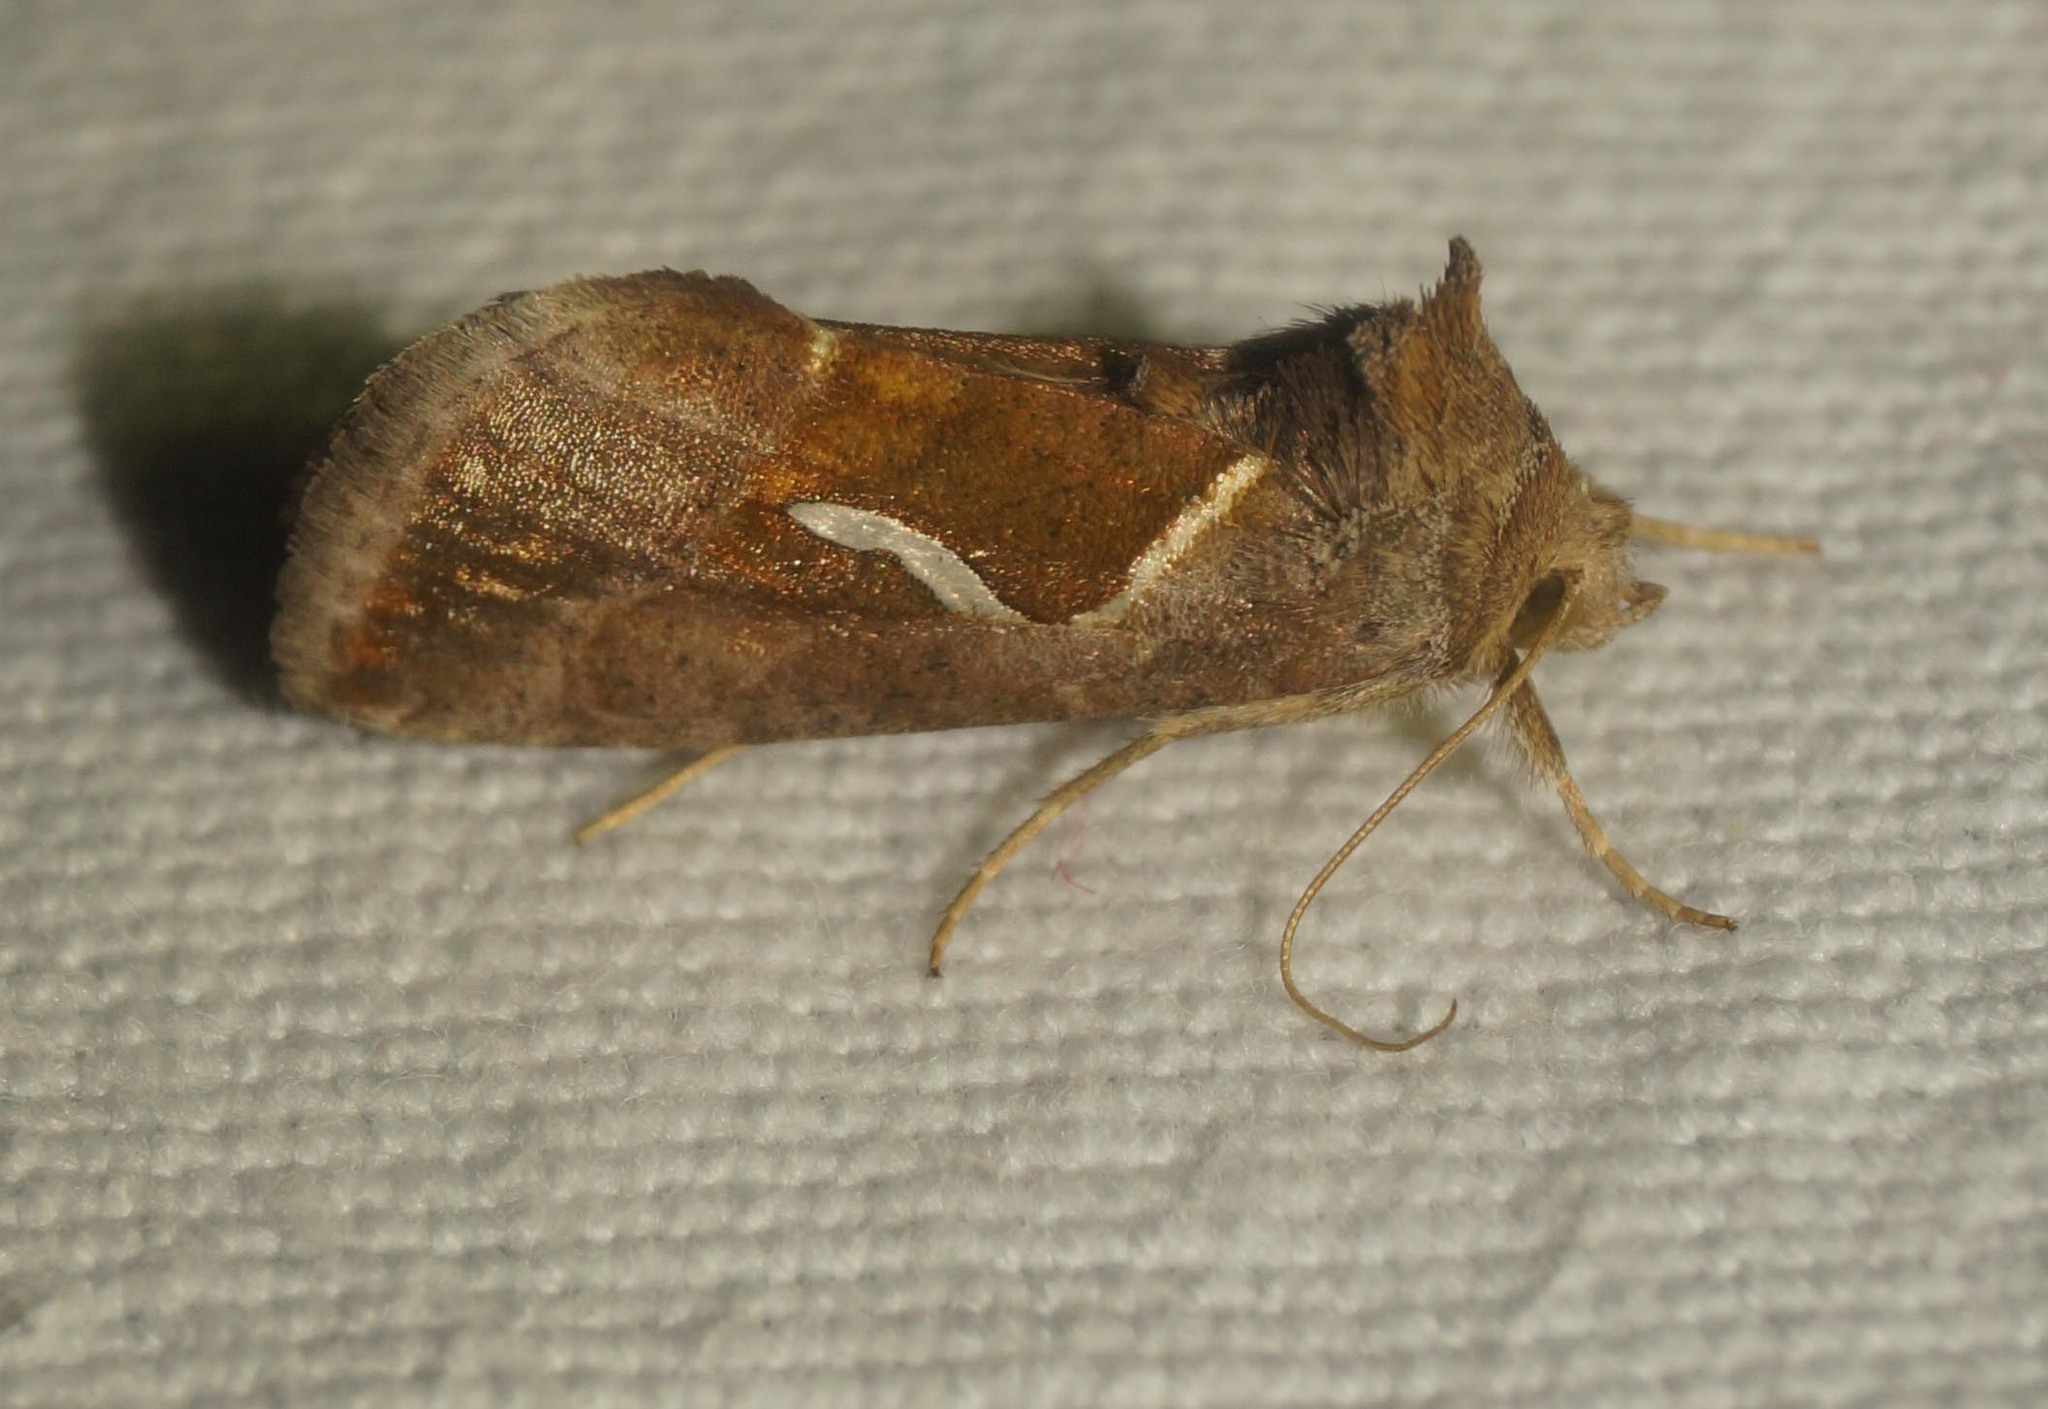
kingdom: Animalia
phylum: Arthropoda
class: Insecta
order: Lepidoptera
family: Noctuidae
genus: Macdunnoughia
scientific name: Macdunnoughia confusa
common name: Dewick's plusia
